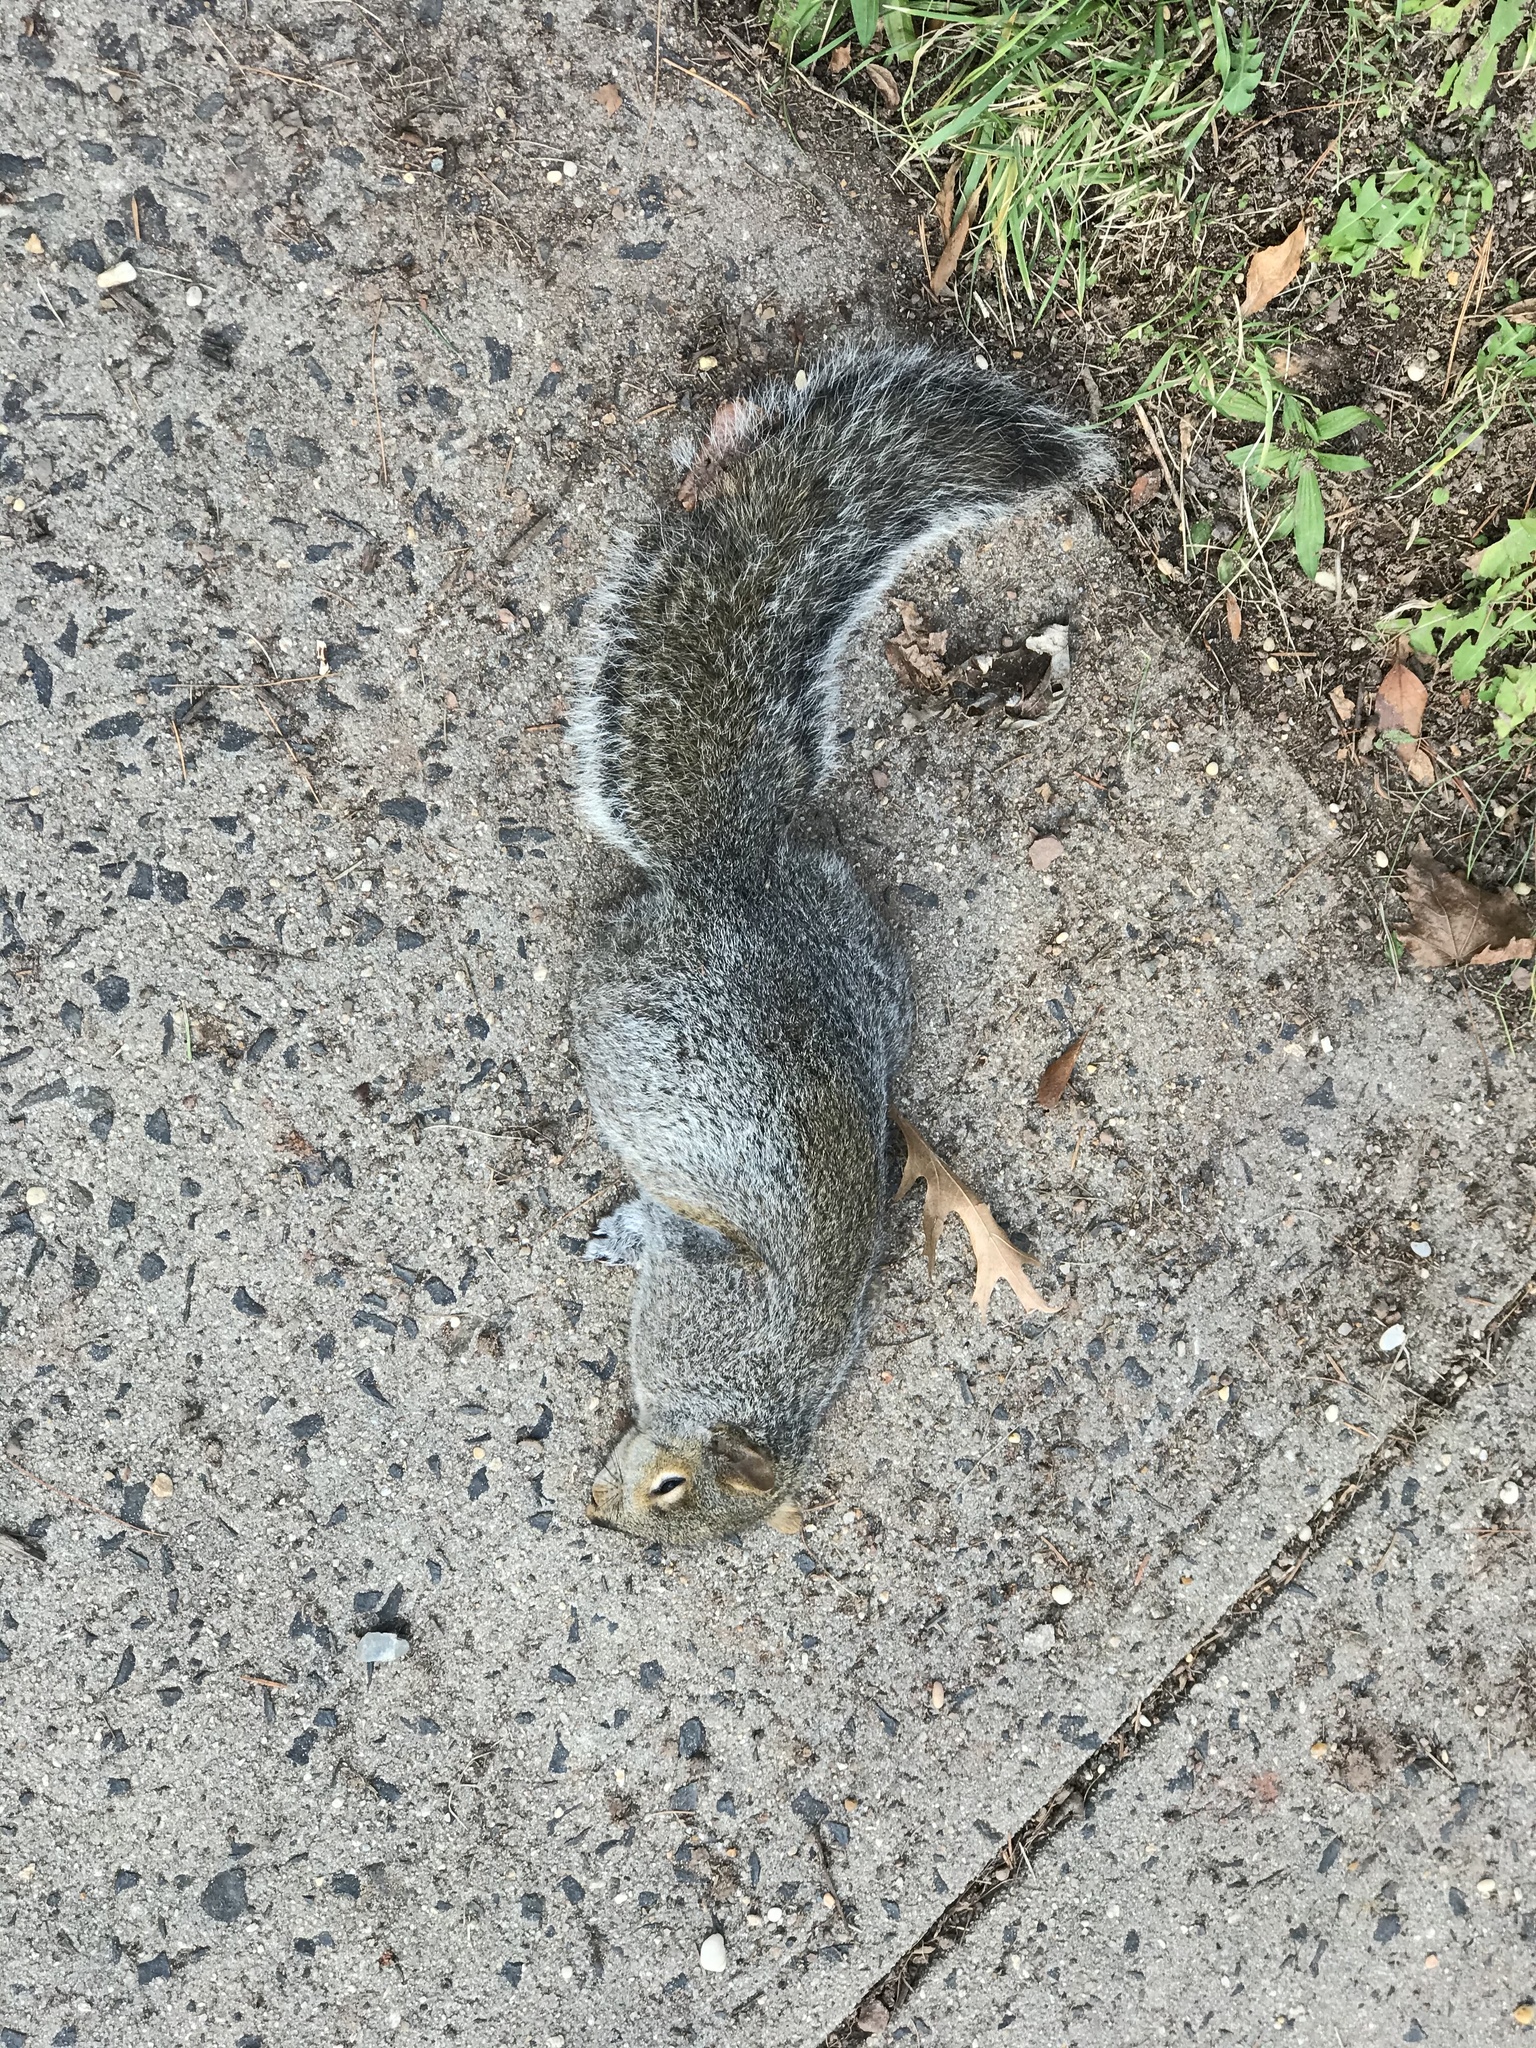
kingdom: Animalia
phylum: Chordata
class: Mammalia
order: Rodentia
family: Sciuridae
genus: Sciurus
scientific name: Sciurus carolinensis
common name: Eastern gray squirrel
